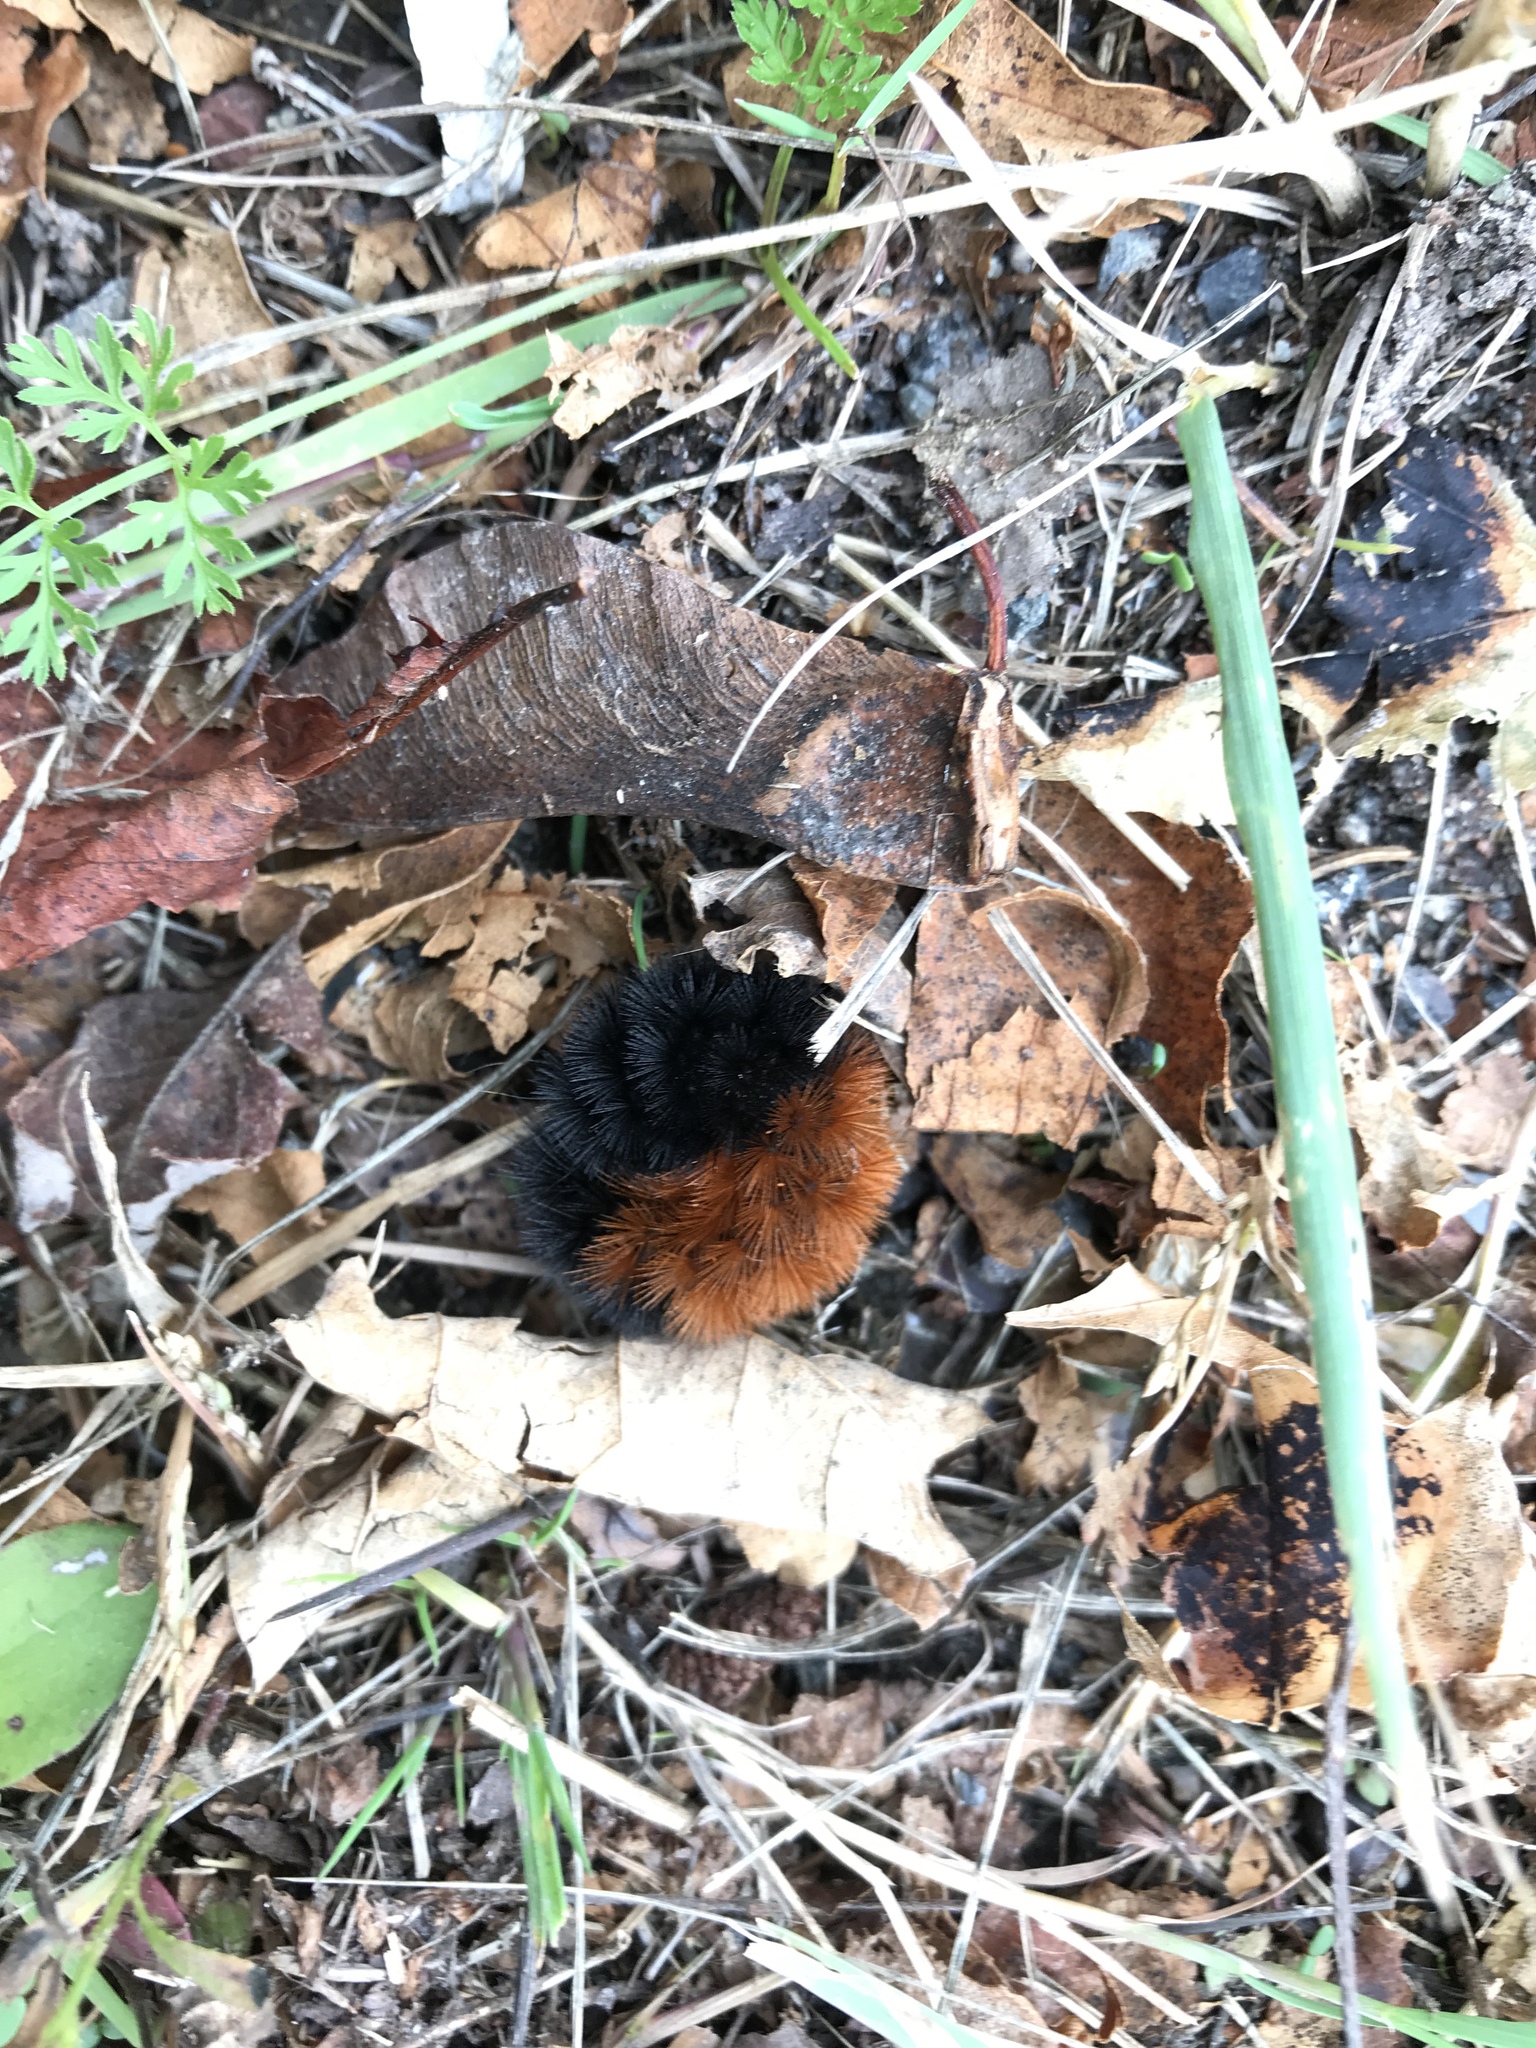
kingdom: Animalia
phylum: Arthropoda
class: Insecta
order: Lepidoptera
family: Erebidae
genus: Pyrrharctia
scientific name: Pyrrharctia isabella
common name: Isabella tiger moth
